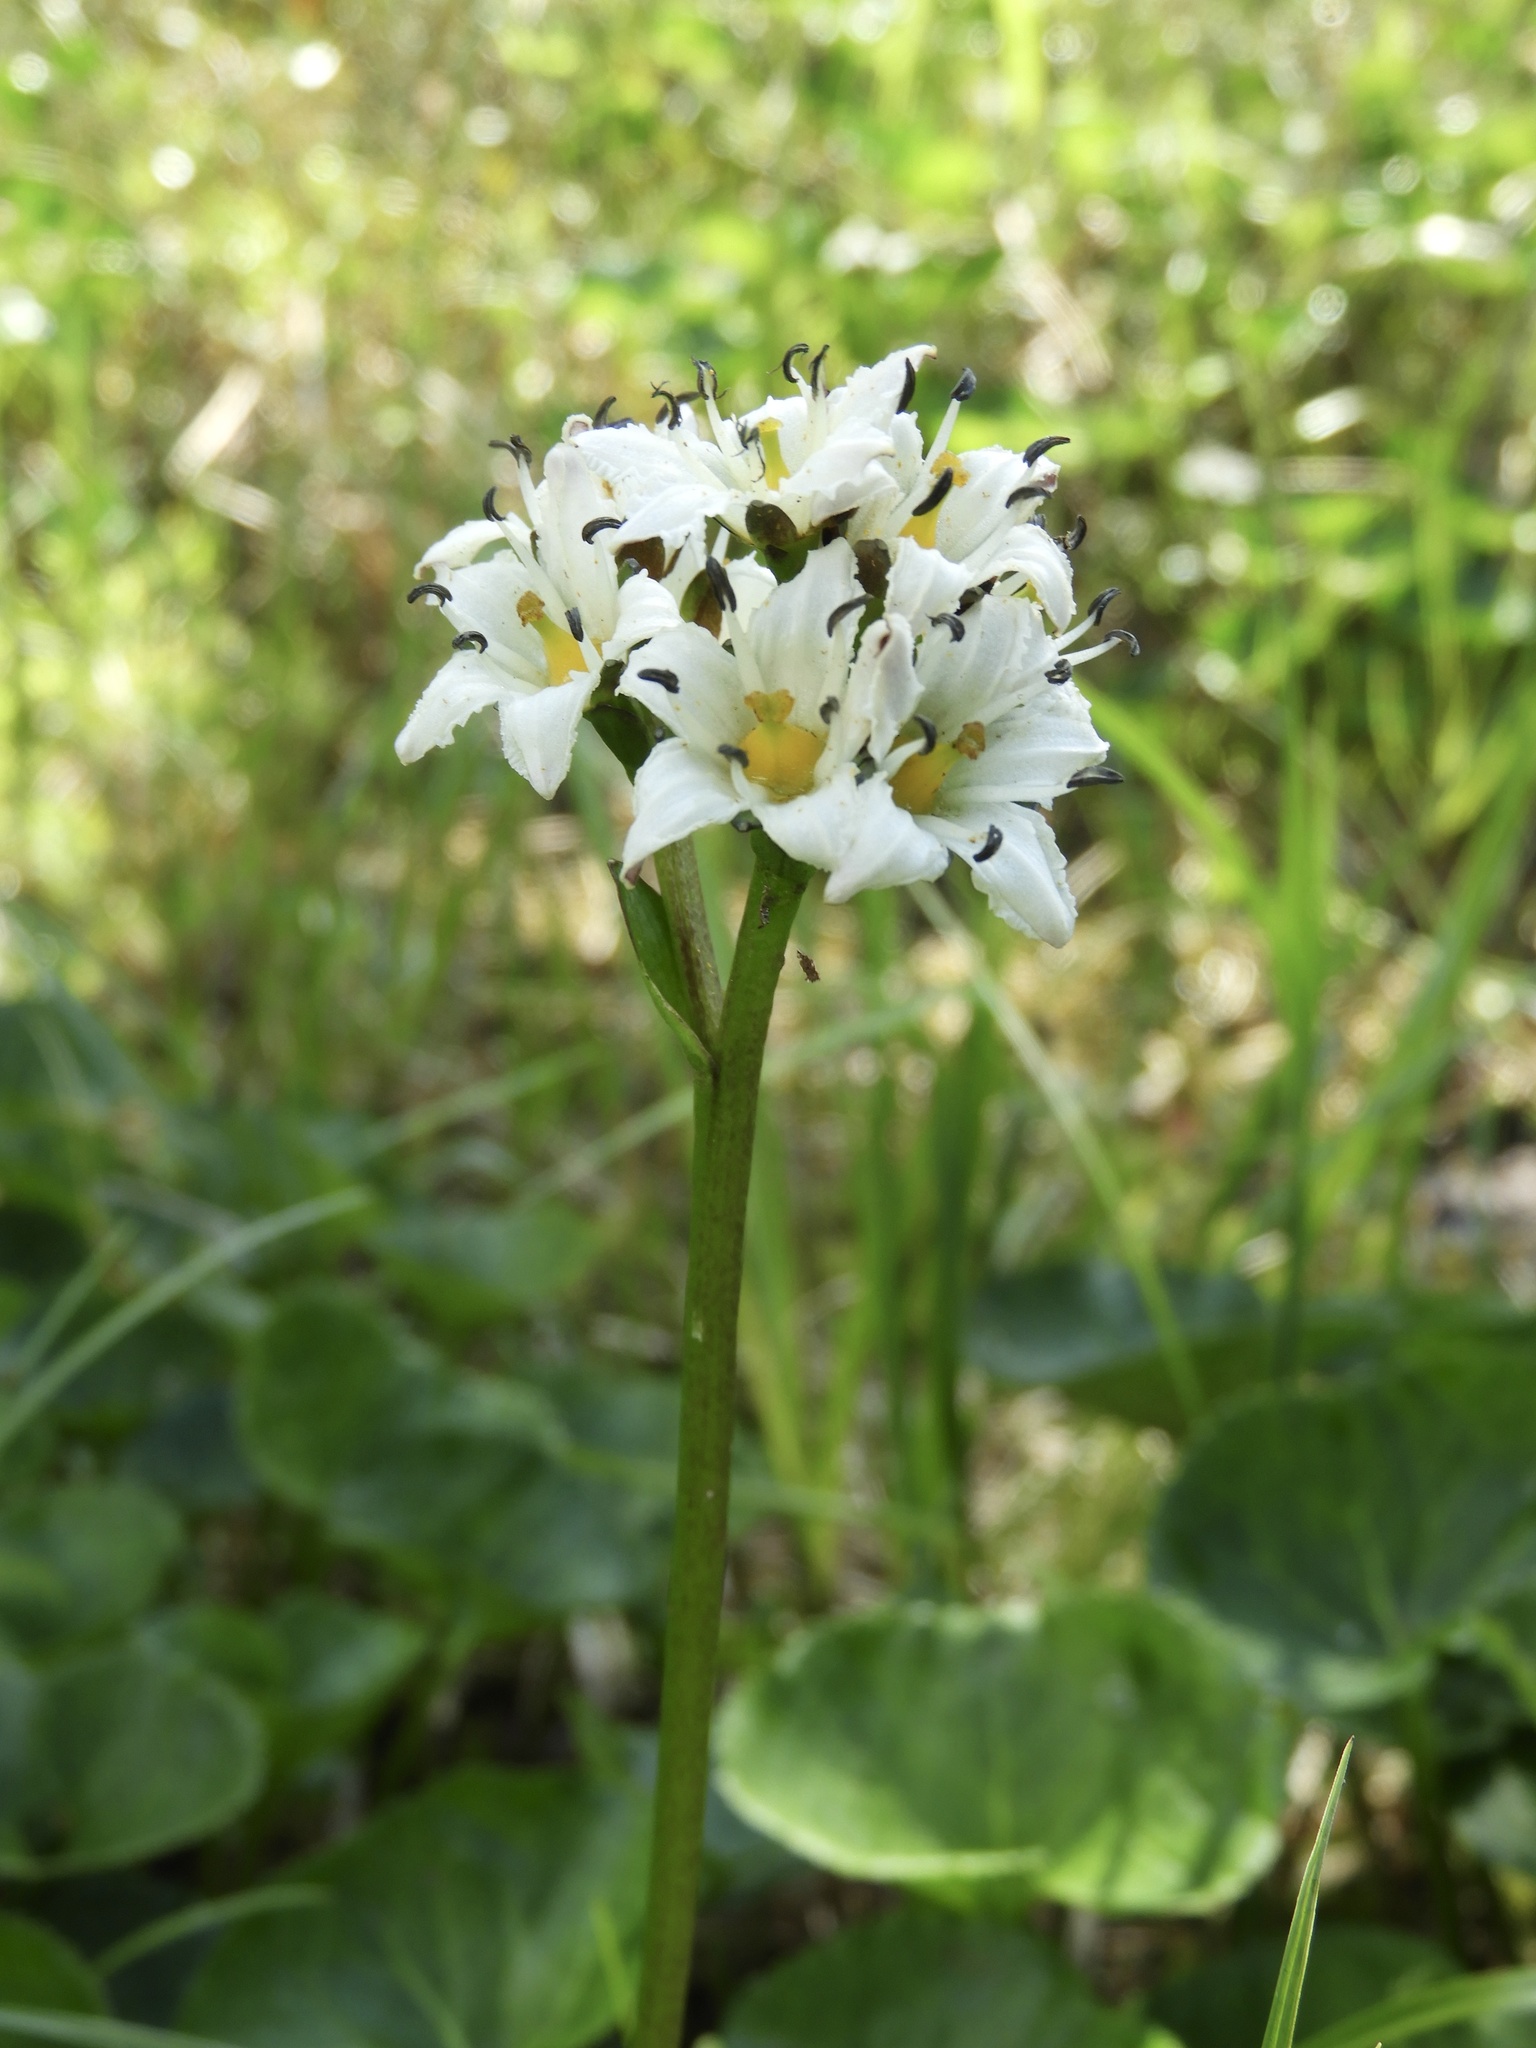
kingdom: Plantae
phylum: Tracheophyta
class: Magnoliopsida
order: Asterales
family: Menyanthaceae
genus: Nephrophyllidium
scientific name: Nephrophyllidium crista-galli
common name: Deer-cabbage
